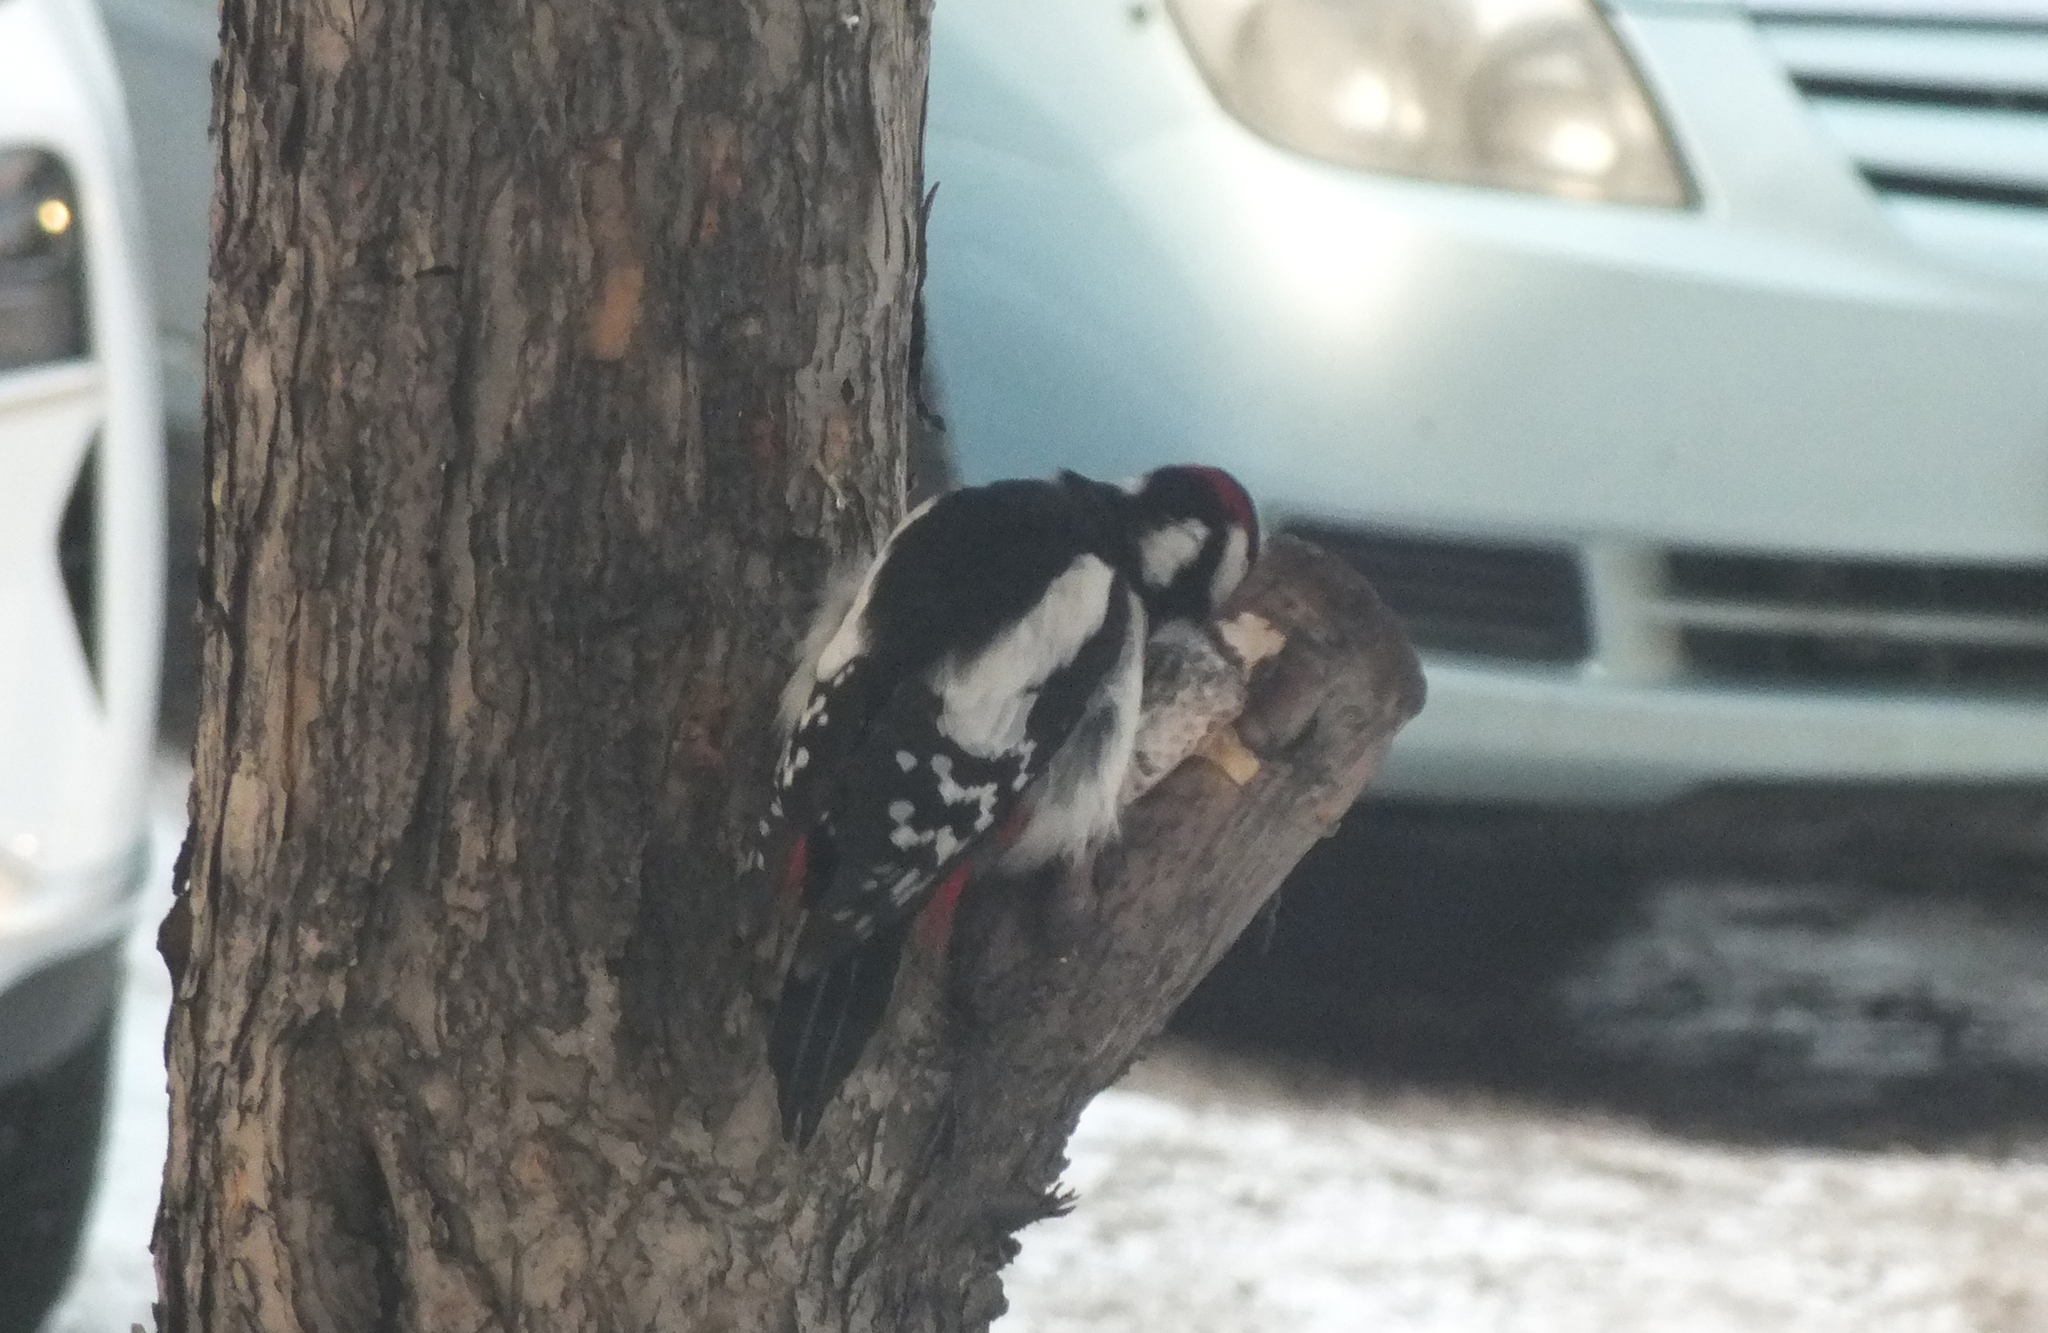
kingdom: Animalia
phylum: Chordata
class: Aves
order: Piciformes
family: Picidae
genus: Dendrocopos
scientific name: Dendrocopos major
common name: Great spotted woodpecker
